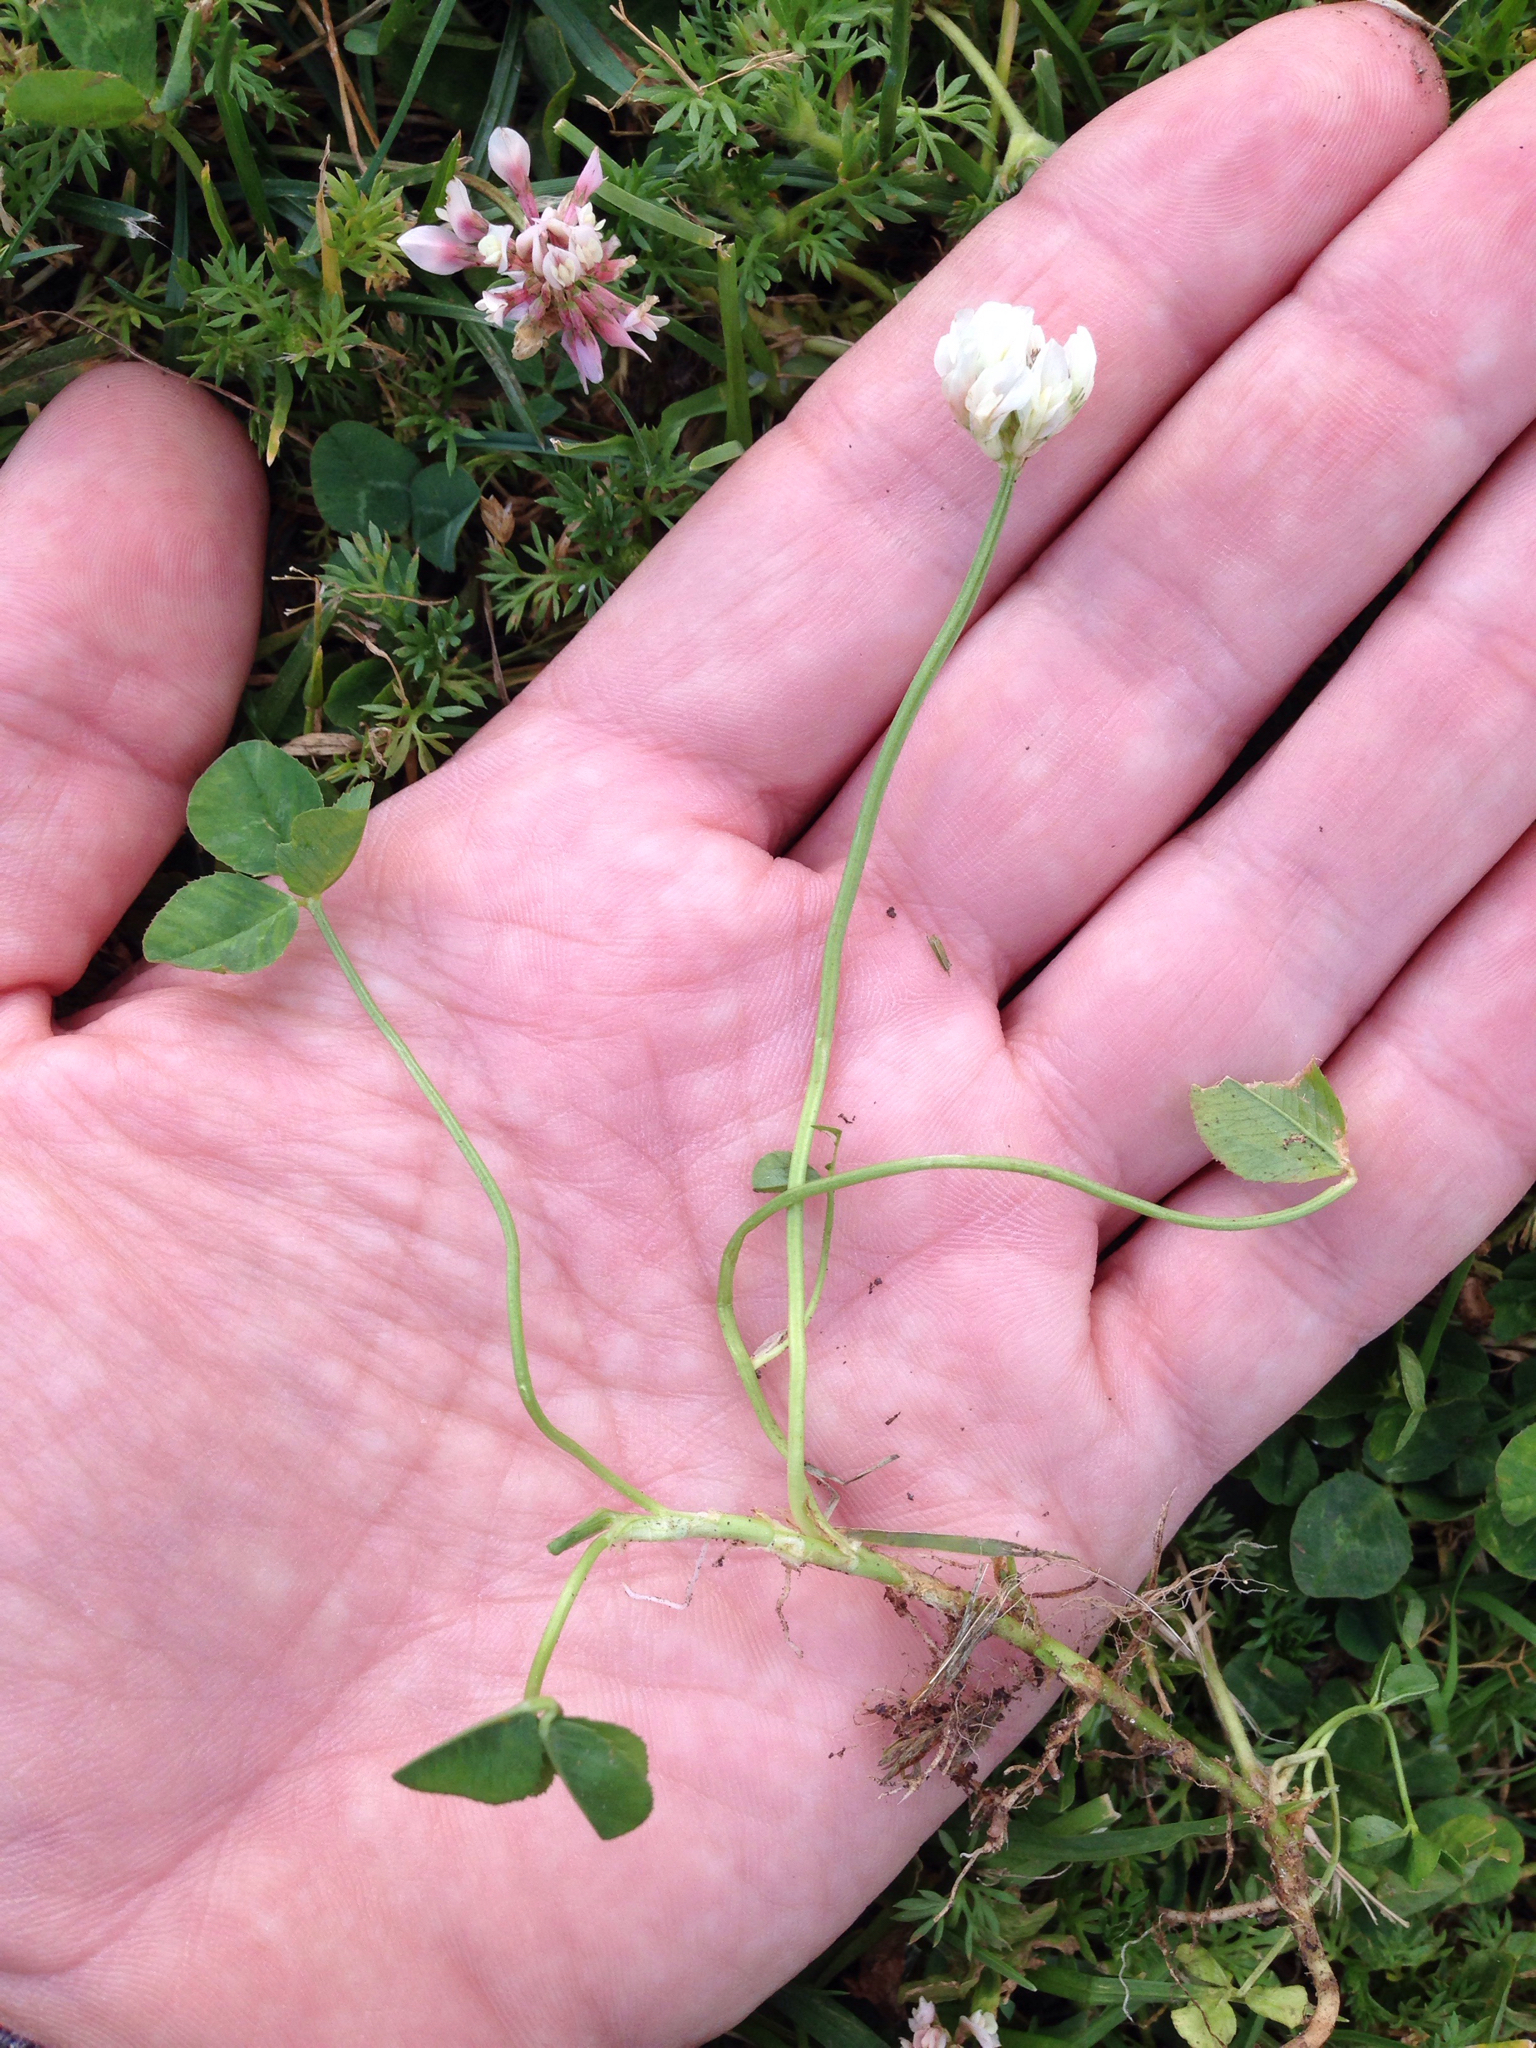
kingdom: Plantae
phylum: Tracheophyta
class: Magnoliopsida
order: Fabales
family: Fabaceae
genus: Trifolium
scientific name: Trifolium repens
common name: White clover
